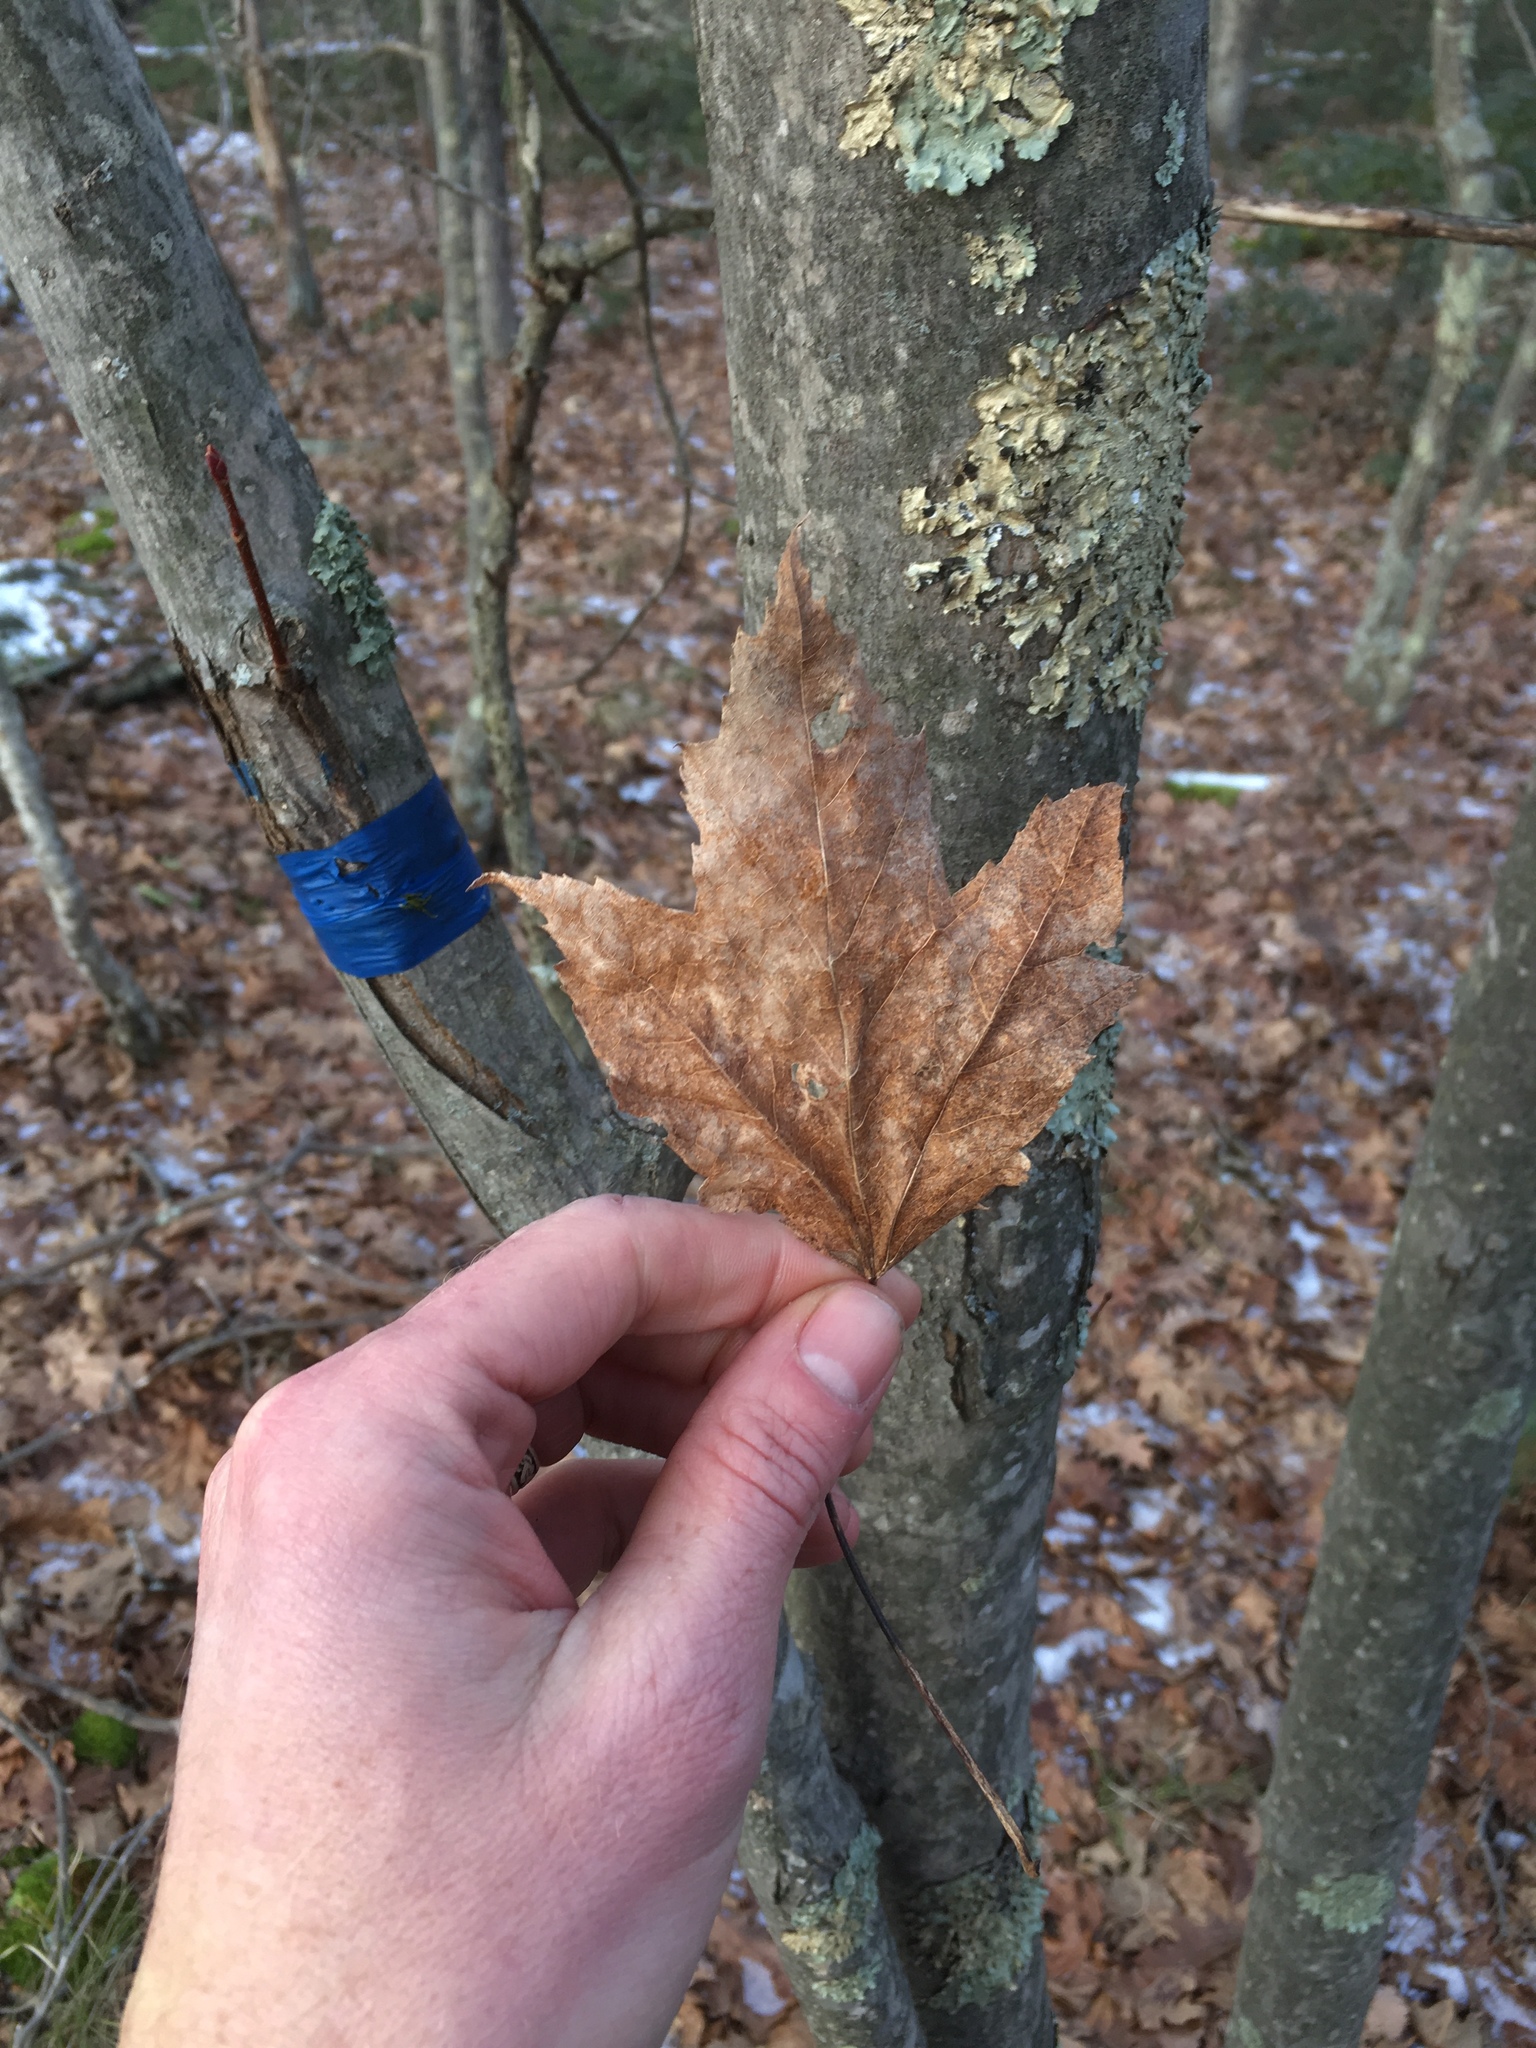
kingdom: Plantae
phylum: Tracheophyta
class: Magnoliopsida
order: Sapindales
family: Sapindaceae
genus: Acer
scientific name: Acer rubrum
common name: Red maple
